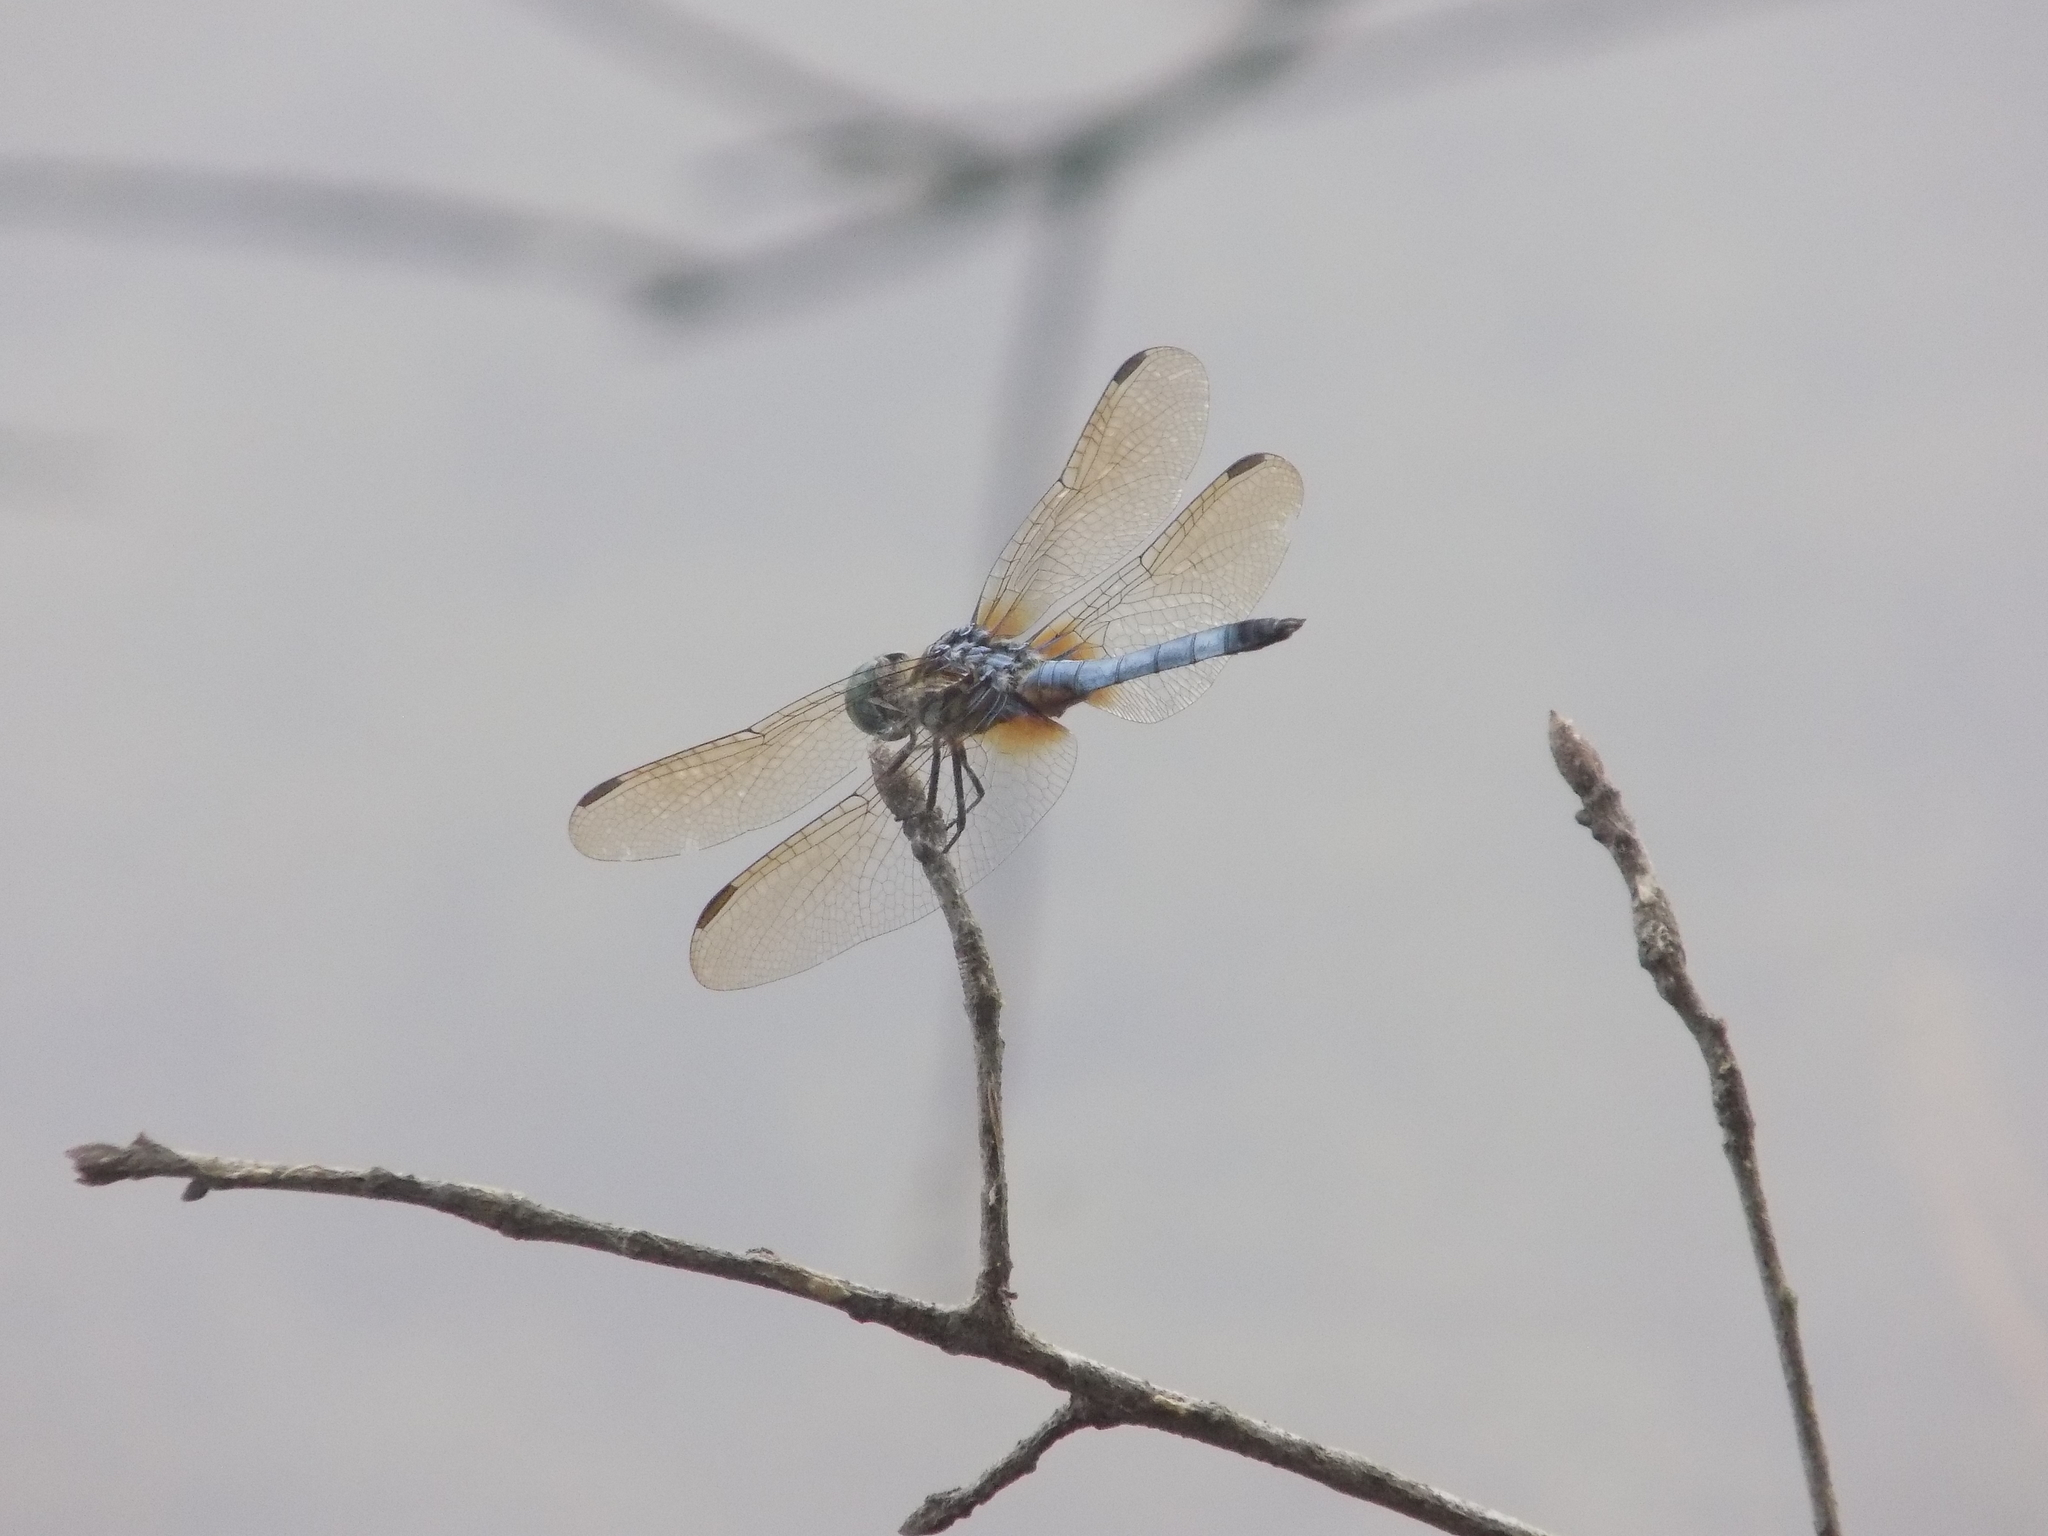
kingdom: Animalia
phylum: Arthropoda
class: Insecta
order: Odonata
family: Libellulidae
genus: Pachydiplax
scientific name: Pachydiplax longipennis
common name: Blue dasher
